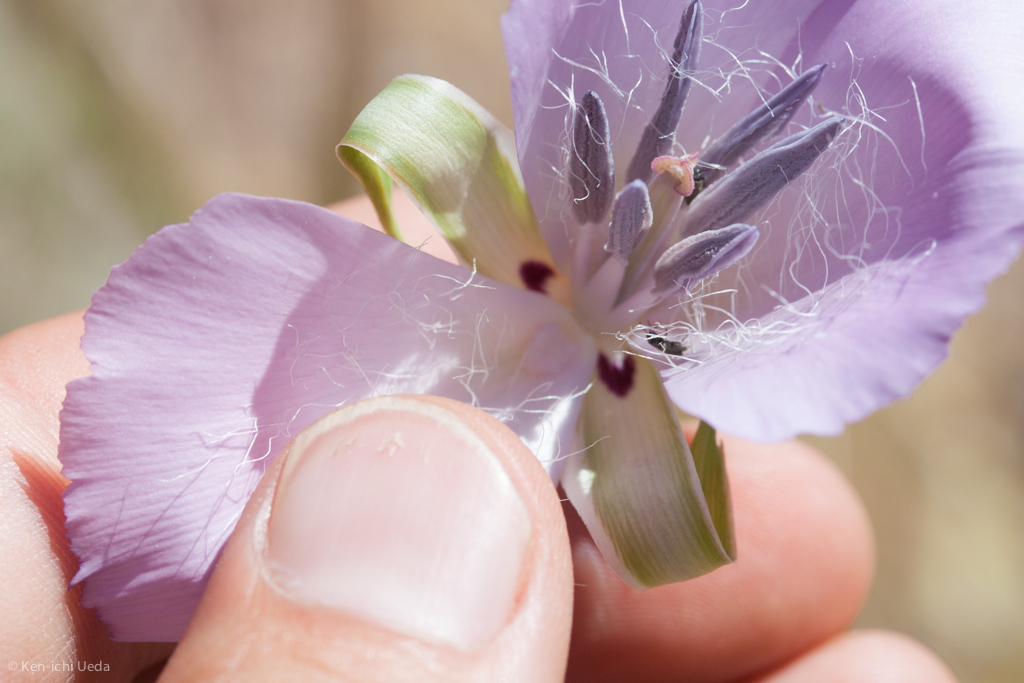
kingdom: Plantae
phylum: Tracheophyta
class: Liliopsida
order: Liliales
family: Liliaceae
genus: Calochortus
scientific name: Calochortus splendens
